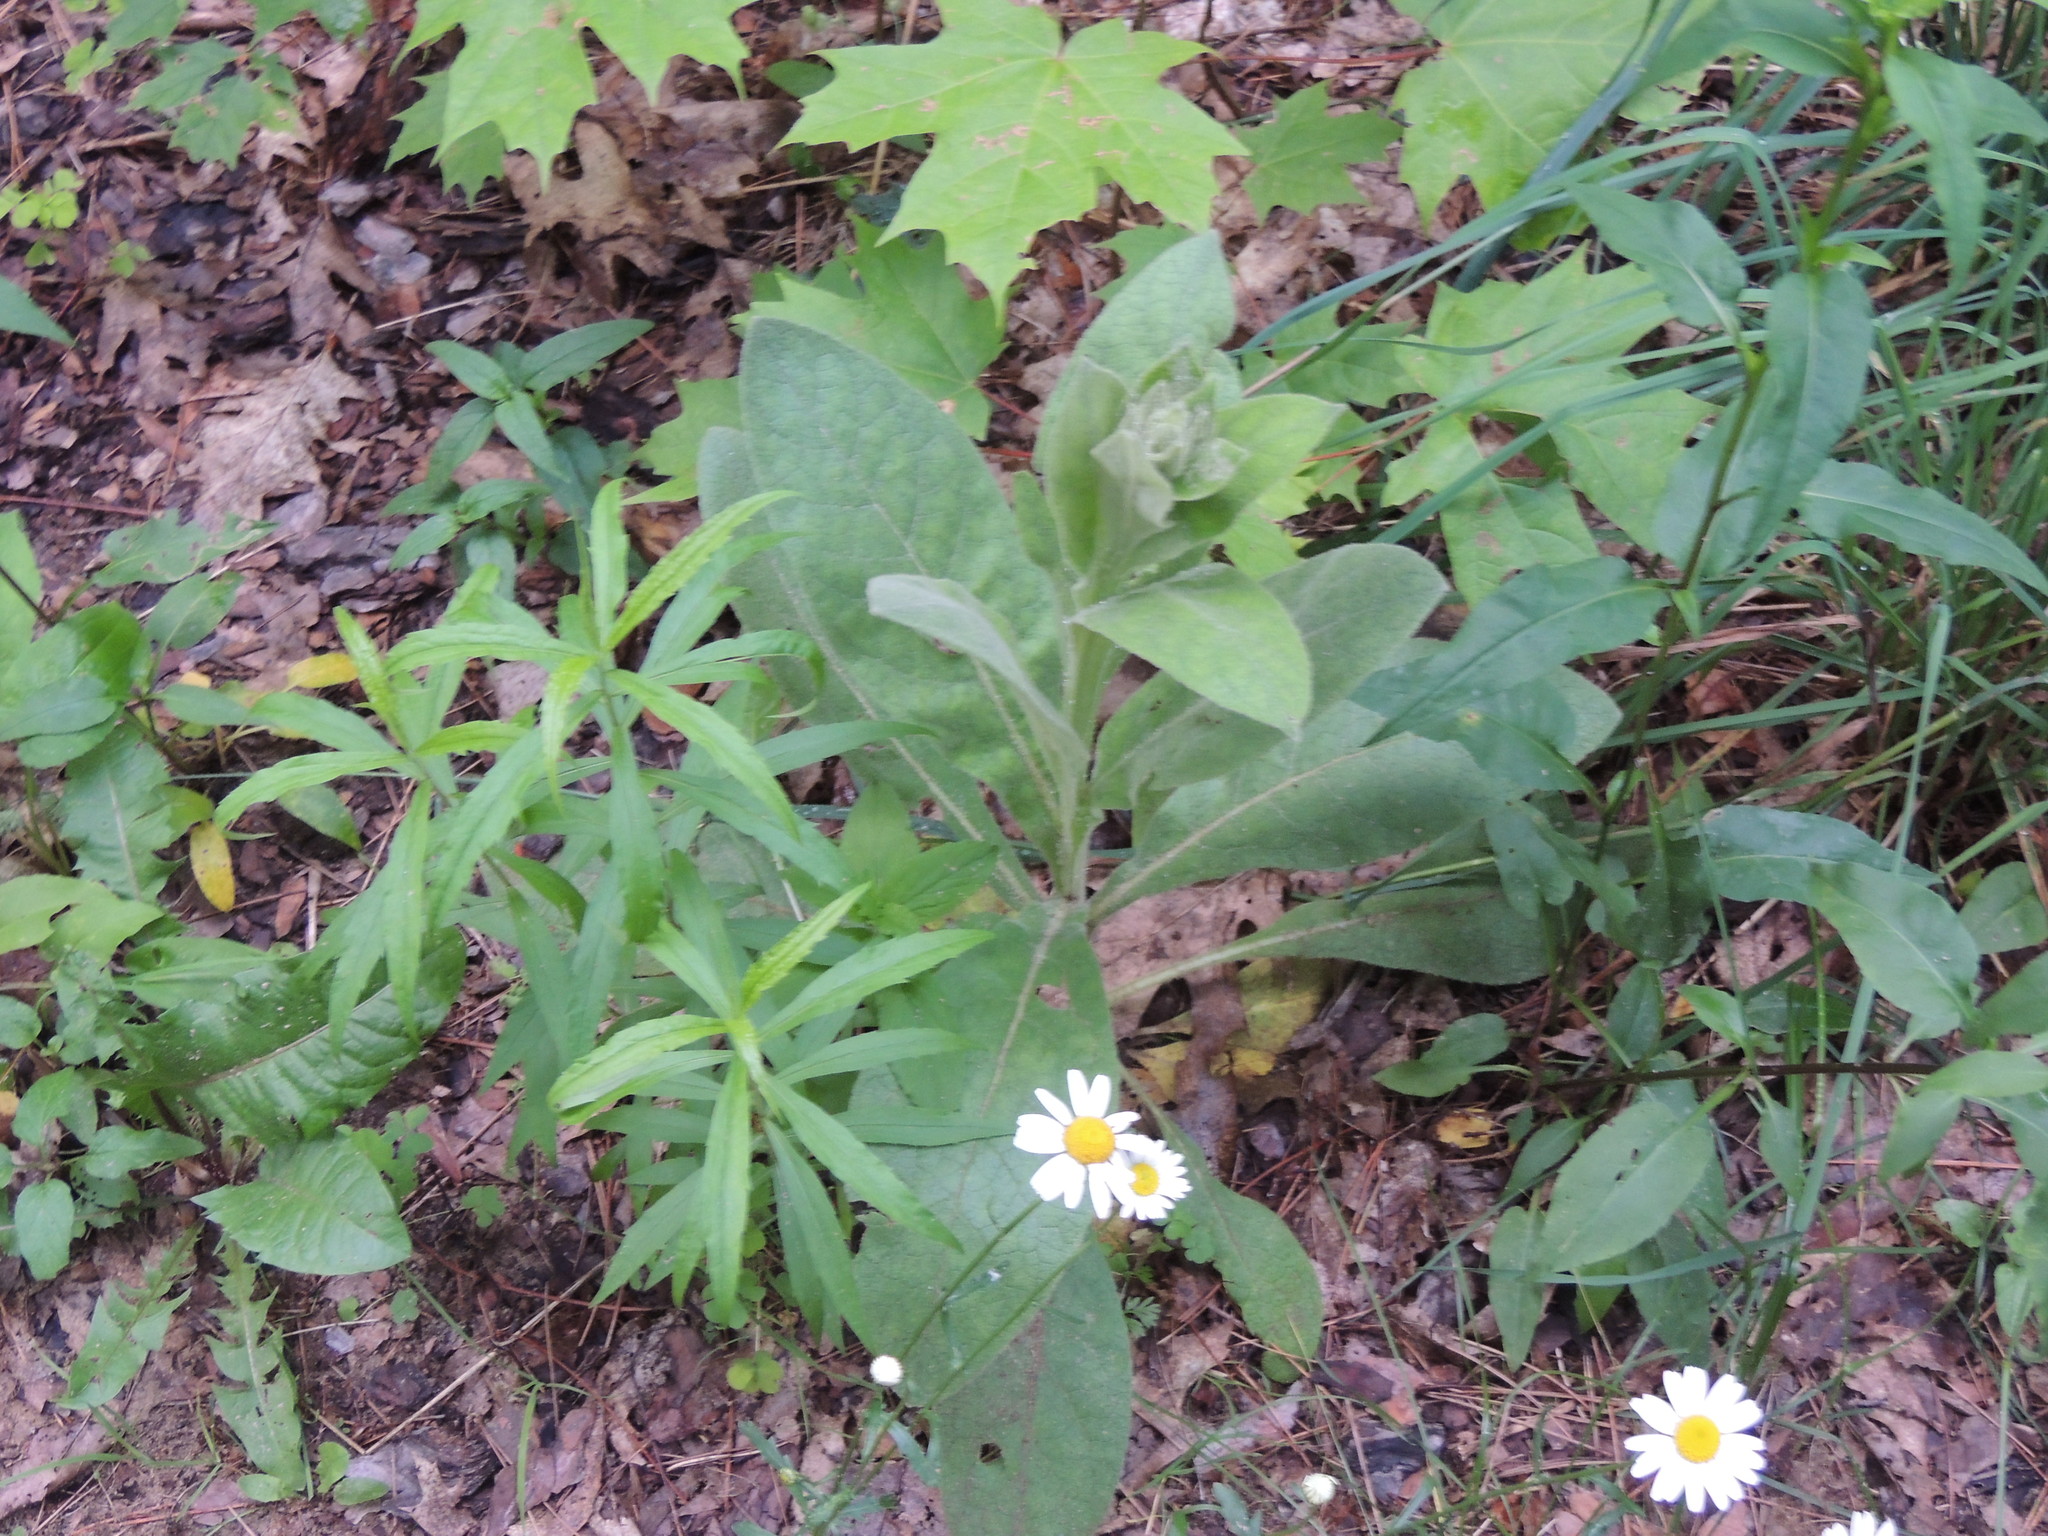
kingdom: Plantae
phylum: Tracheophyta
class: Magnoliopsida
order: Lamiales
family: Scrophulariaceae
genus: Verbascum
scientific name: Verbascum thapsus
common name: Common mullein
